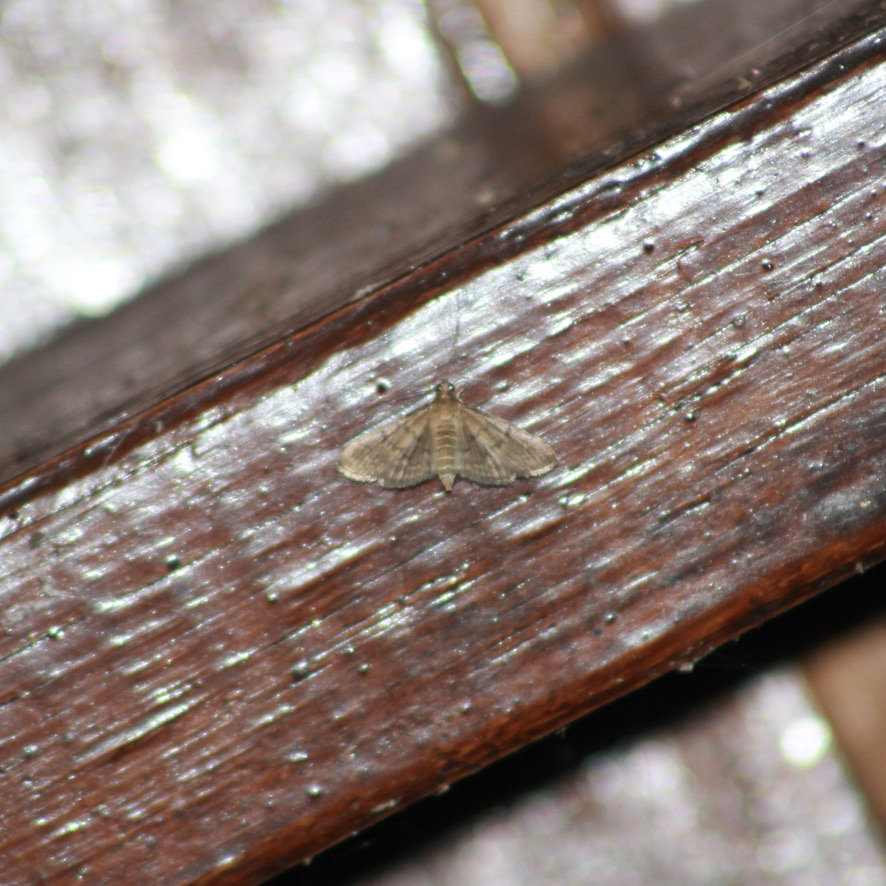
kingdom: Animalia
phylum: Arthropoda
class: Insecta
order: Lepidoptera
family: Crambidae
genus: Herpetogramma
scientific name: Herpetogramma phaeopteralis
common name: Dusky herpetogramma moth
